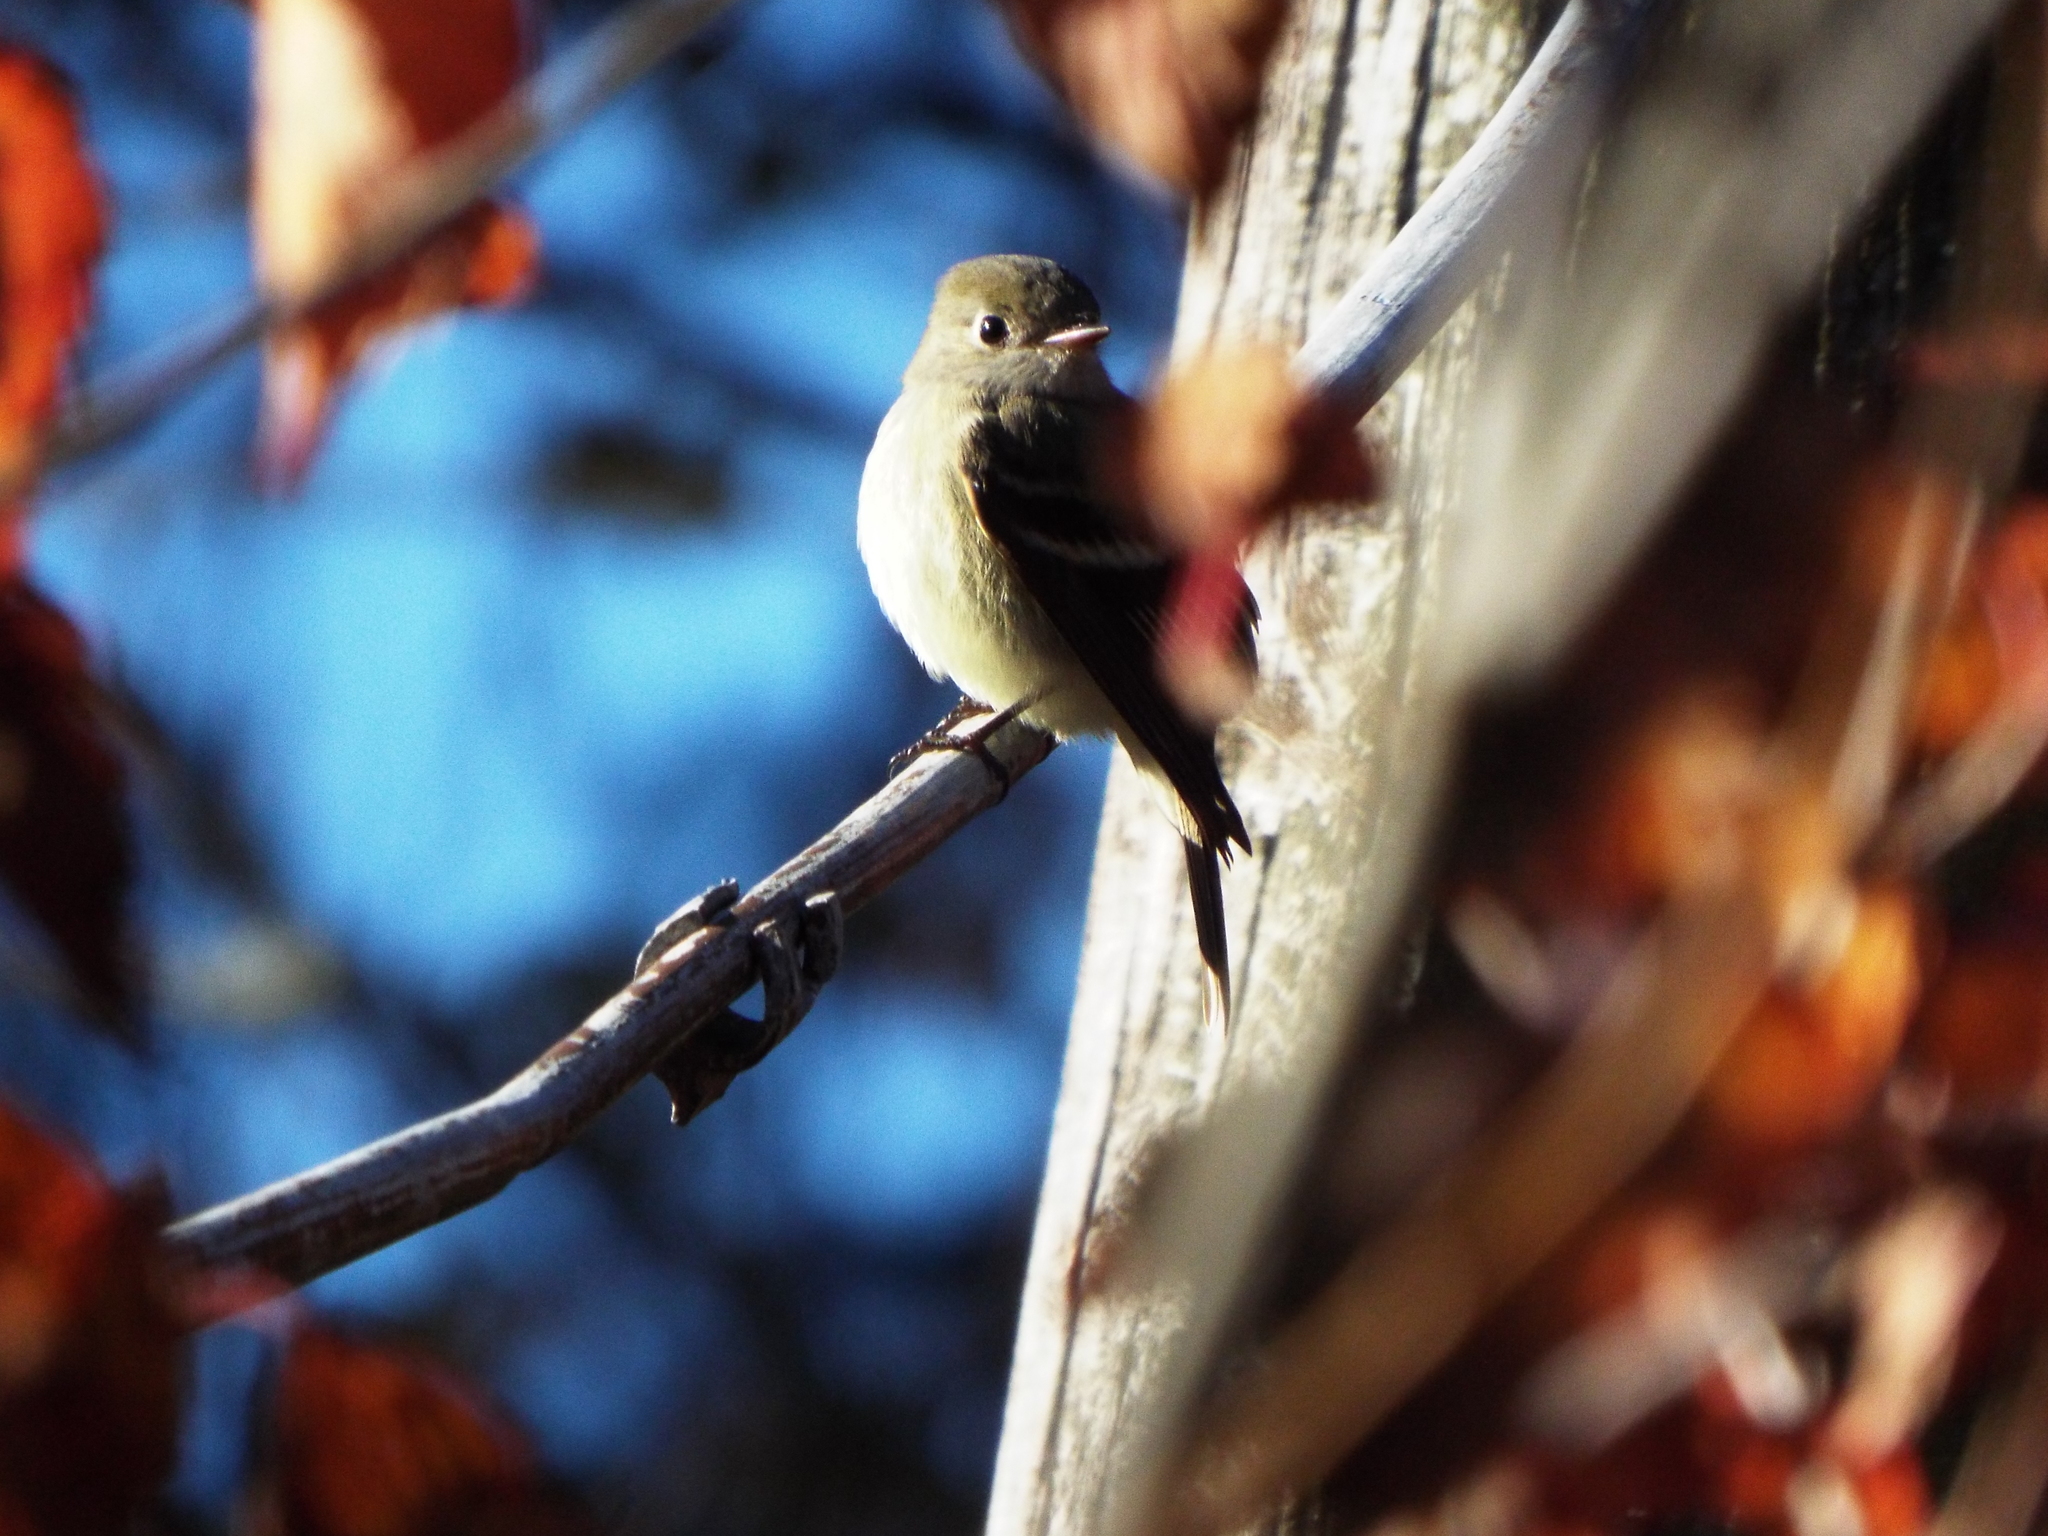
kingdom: Animalia
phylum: Chordata
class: Aves
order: Passeriformes
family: Tyrannidae
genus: Empidonax
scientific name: Empidonax hammondii
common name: Hammond's flycatcher
